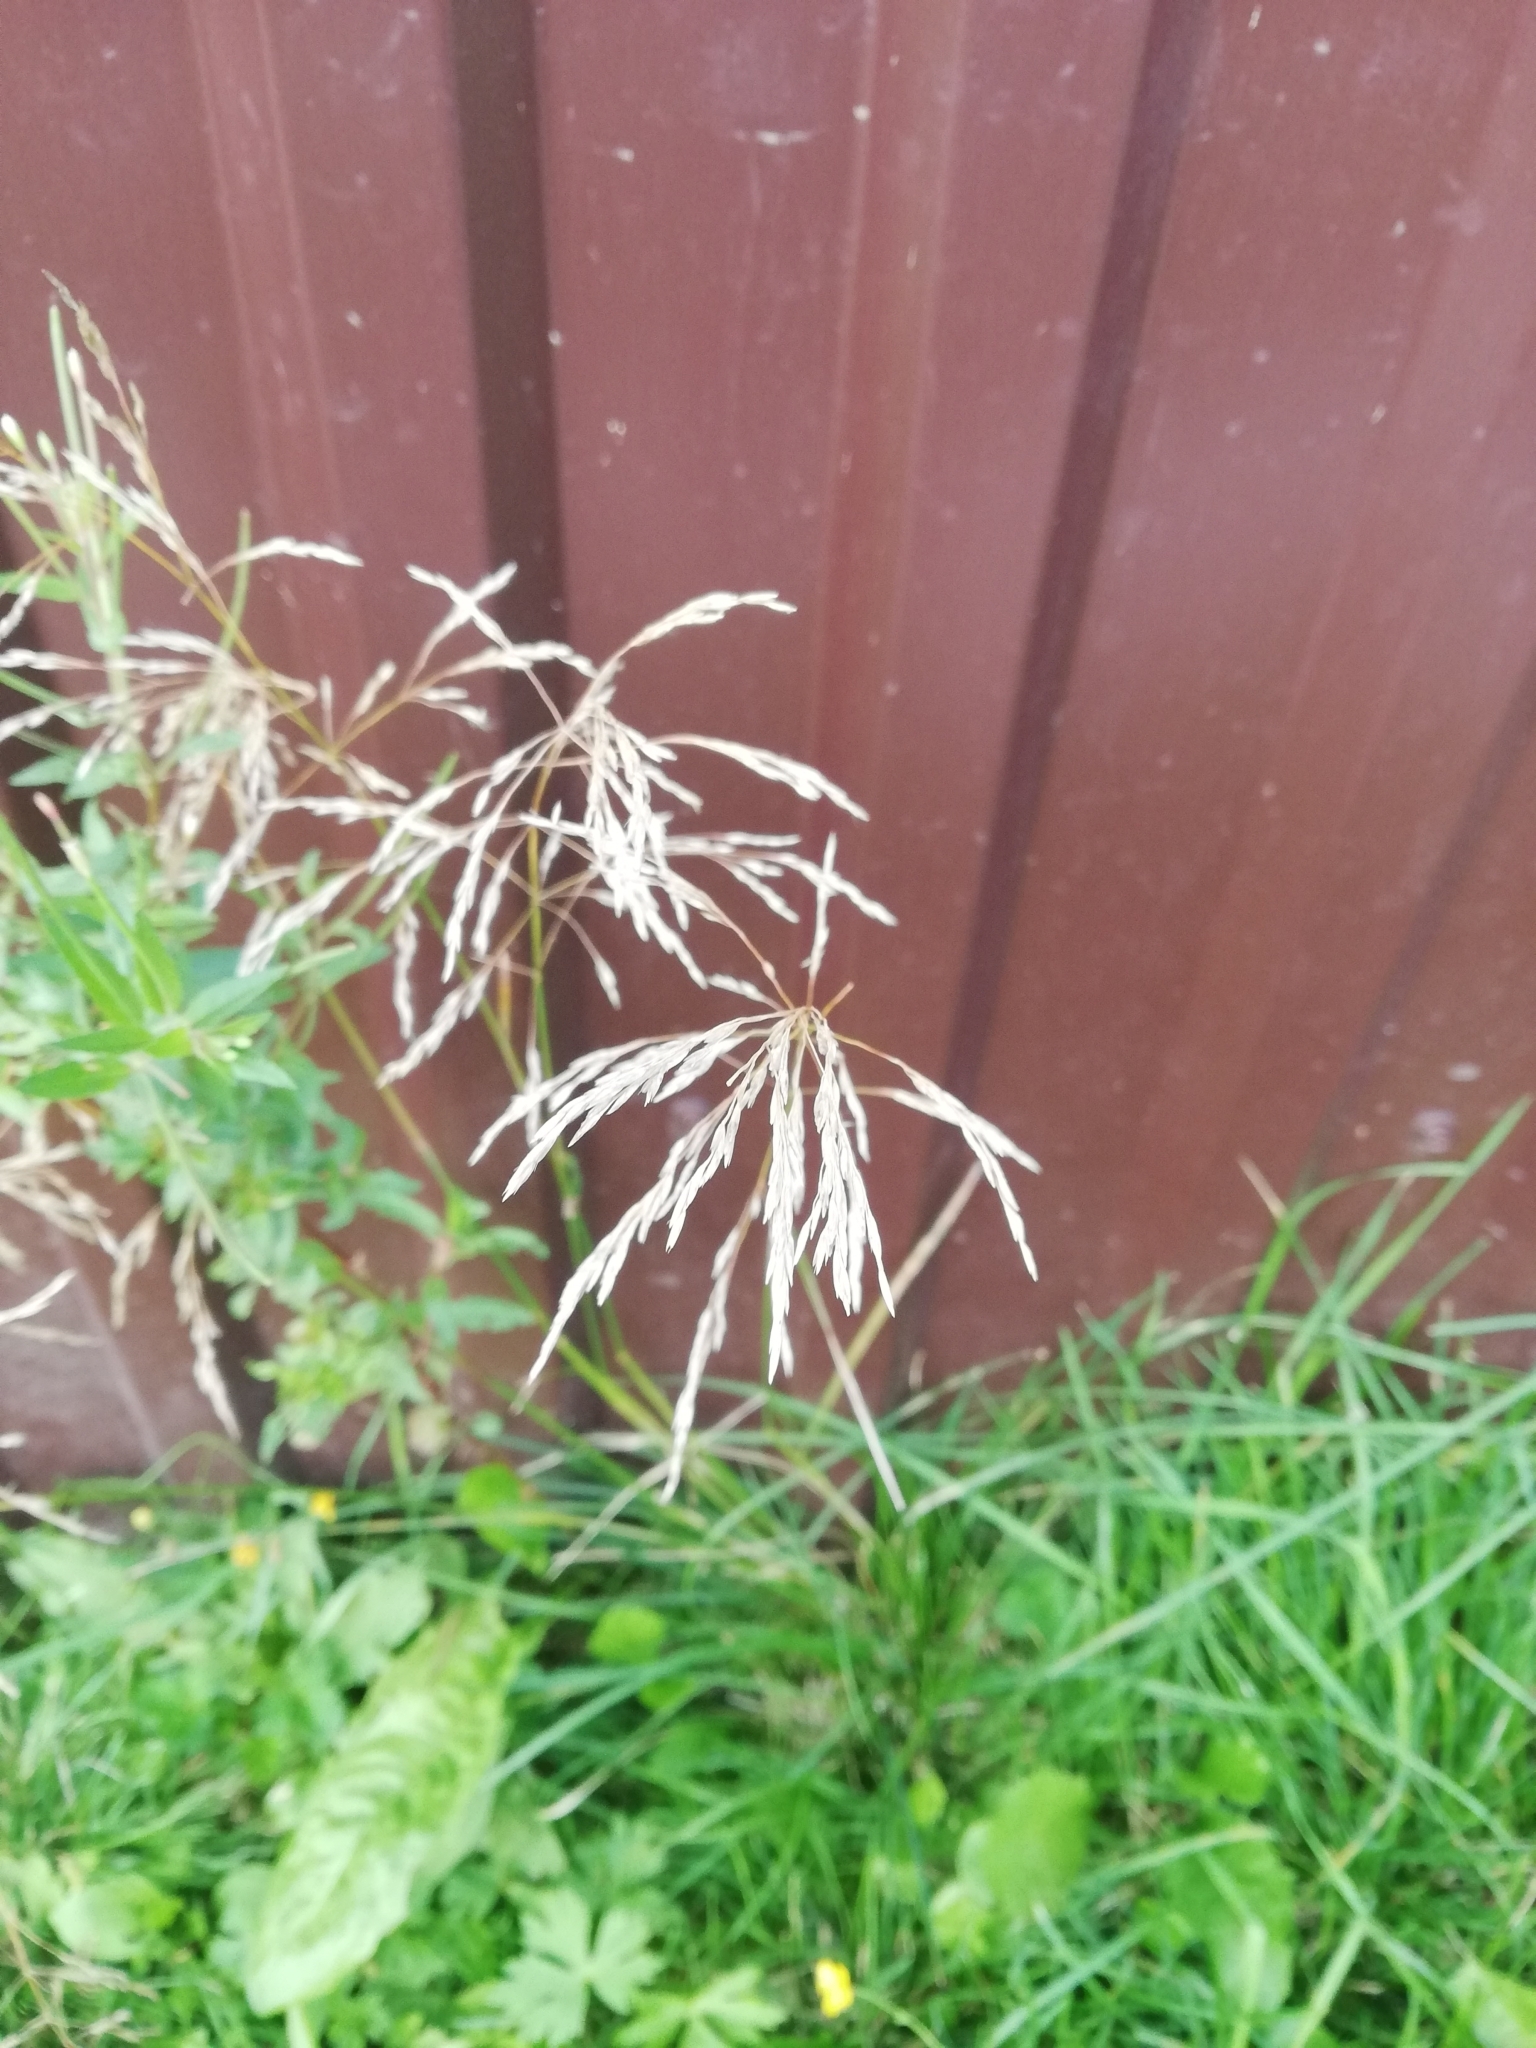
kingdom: Plantae
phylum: Tracheophyta
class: Liliopsida
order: Poales
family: Poaceae
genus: Deschampsia
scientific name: Deschampsia cespitosa
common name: Tufted hair-grass
